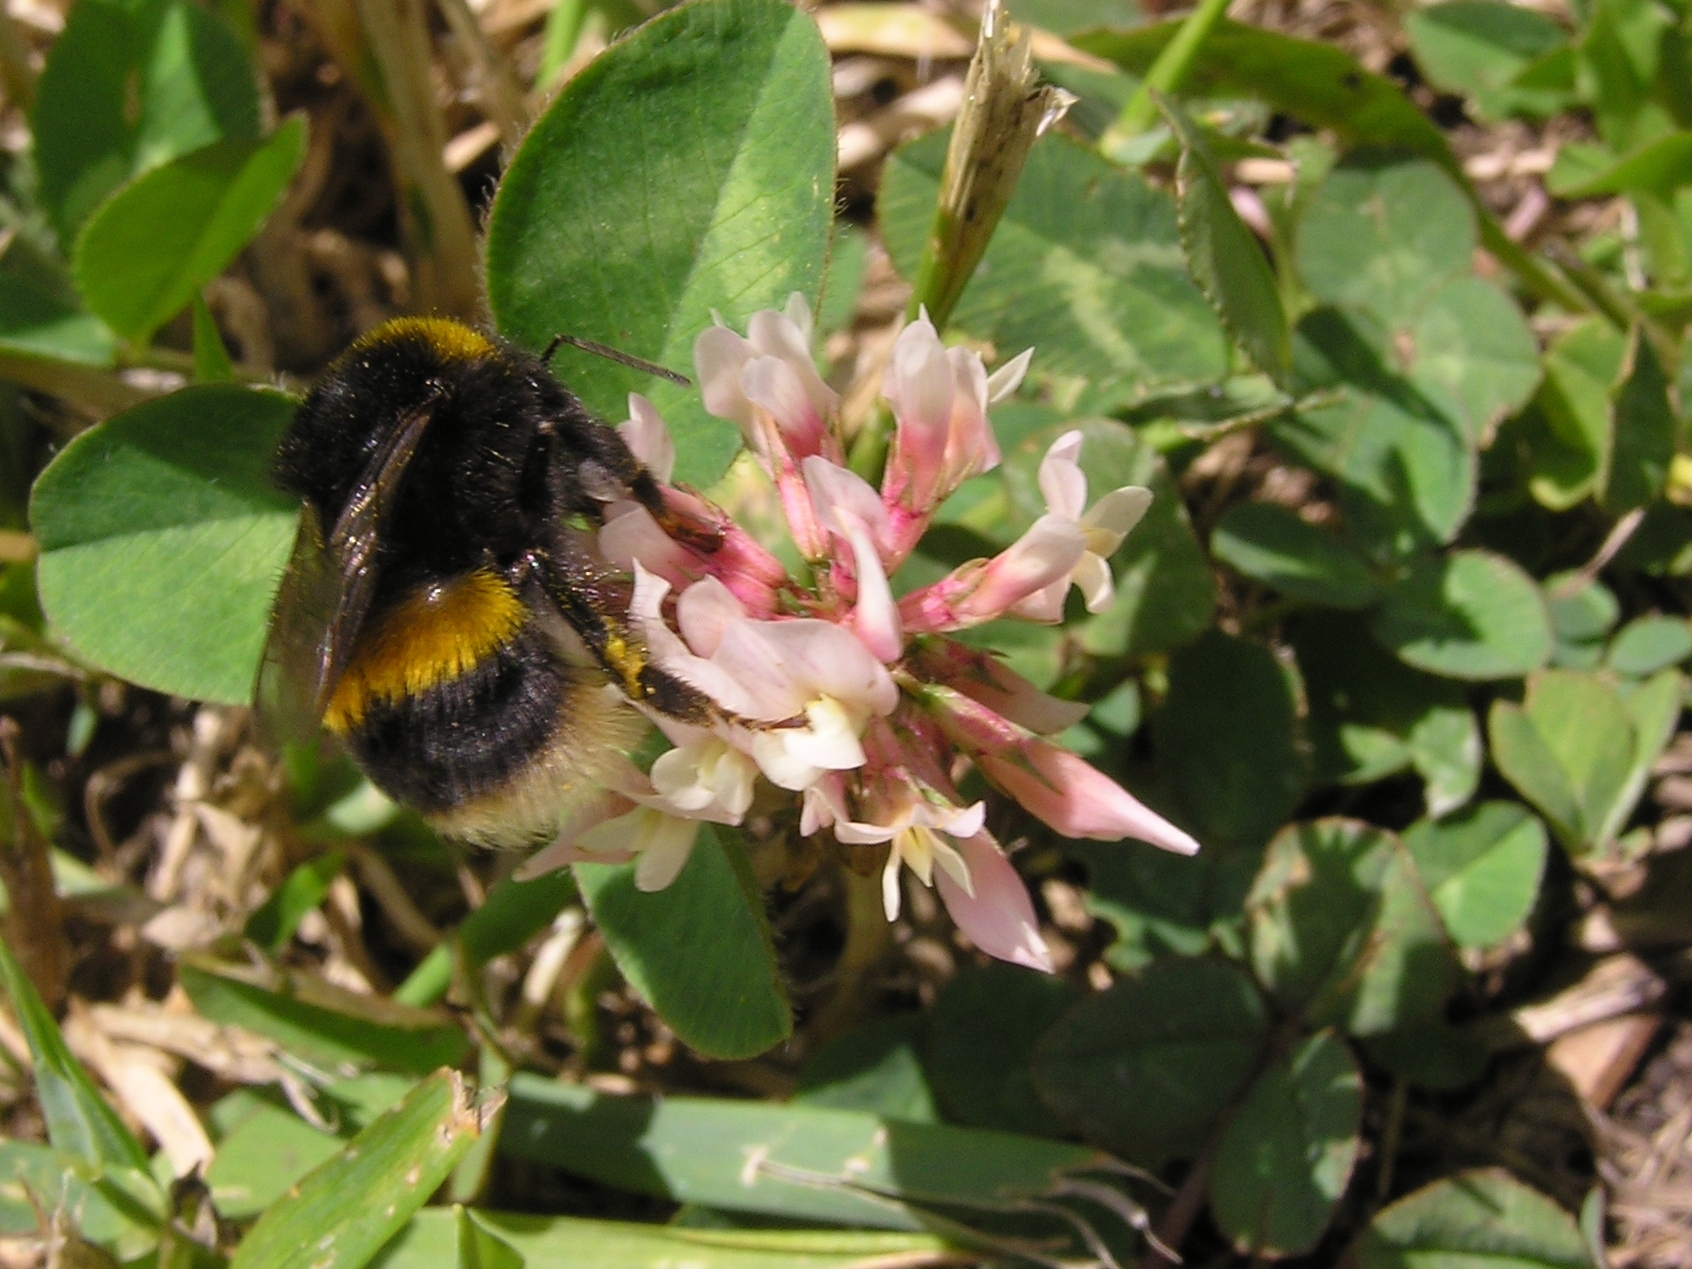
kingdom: Animalia
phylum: Arthropoda
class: Insecta
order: Hymenoptera
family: Apidae
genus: Bombus
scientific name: Bombus terrestris
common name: Buff-tailed bumblebee
